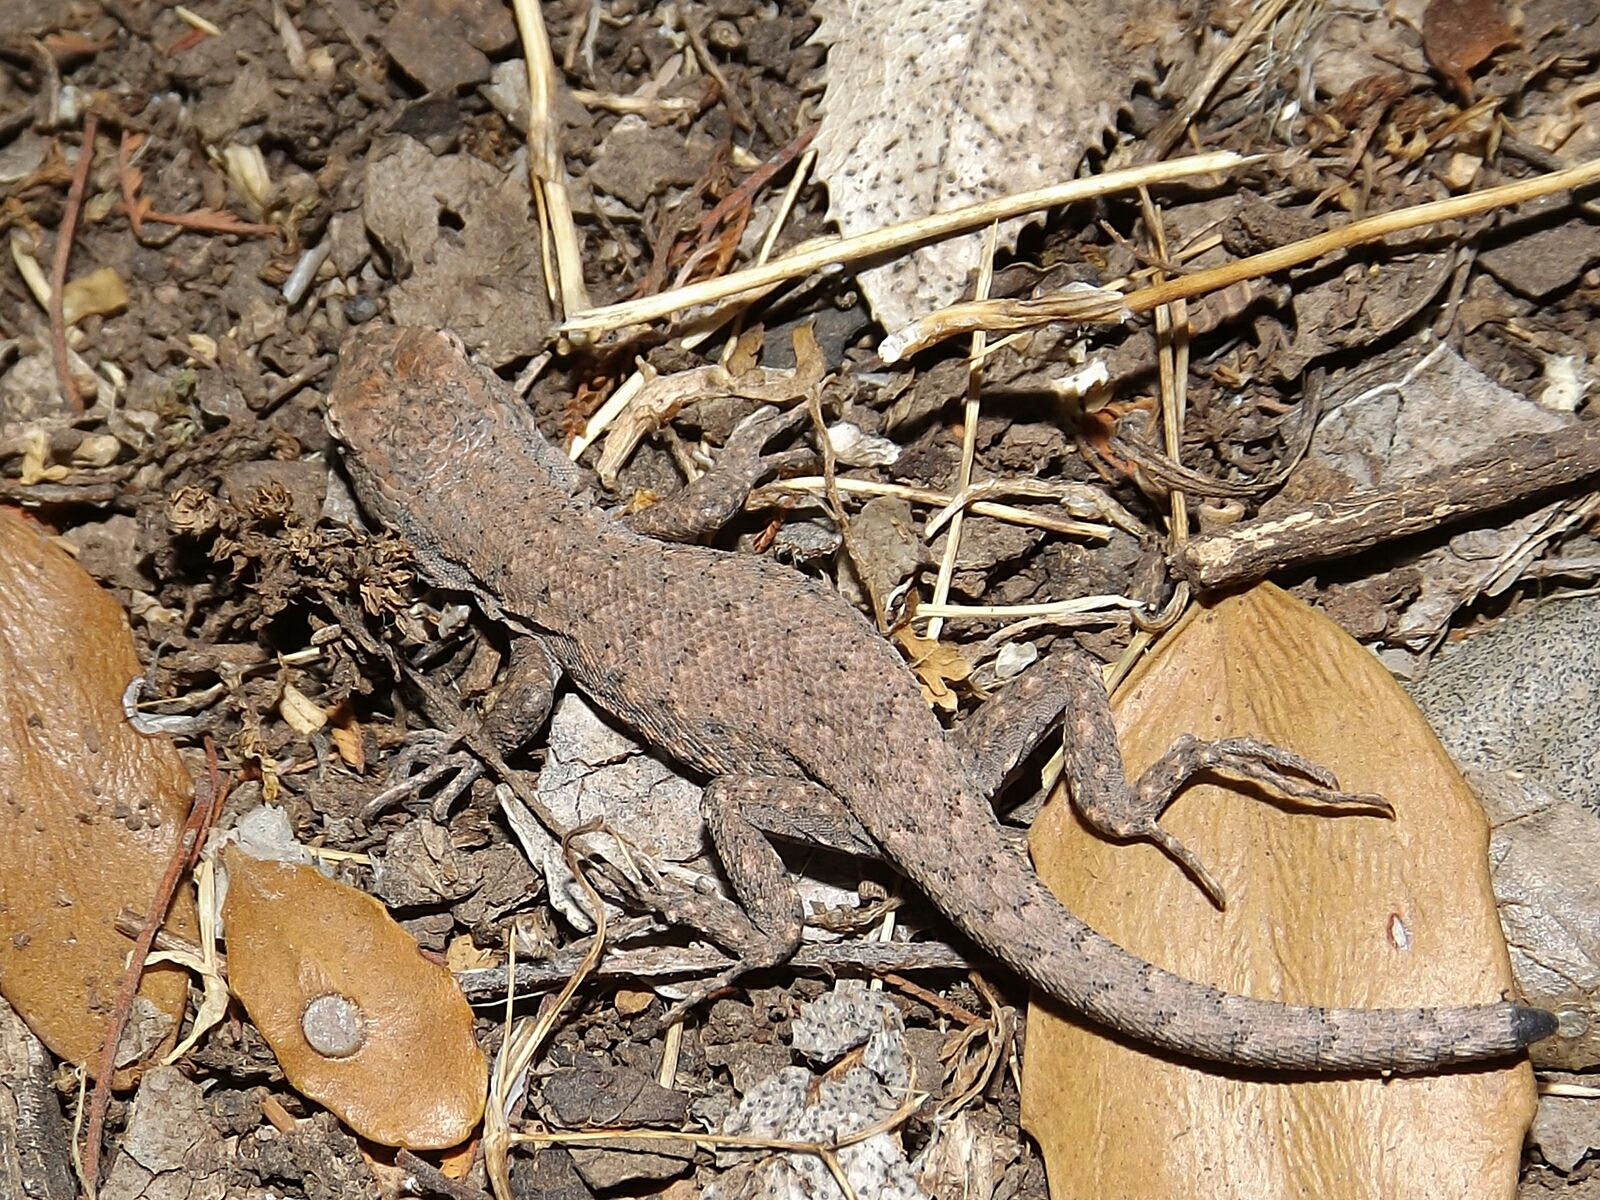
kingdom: Animalia
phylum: Chordata
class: Squamata
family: Liolaemidae
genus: Liolaemus
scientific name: Liolaemus monticola
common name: Peak tree iguana
